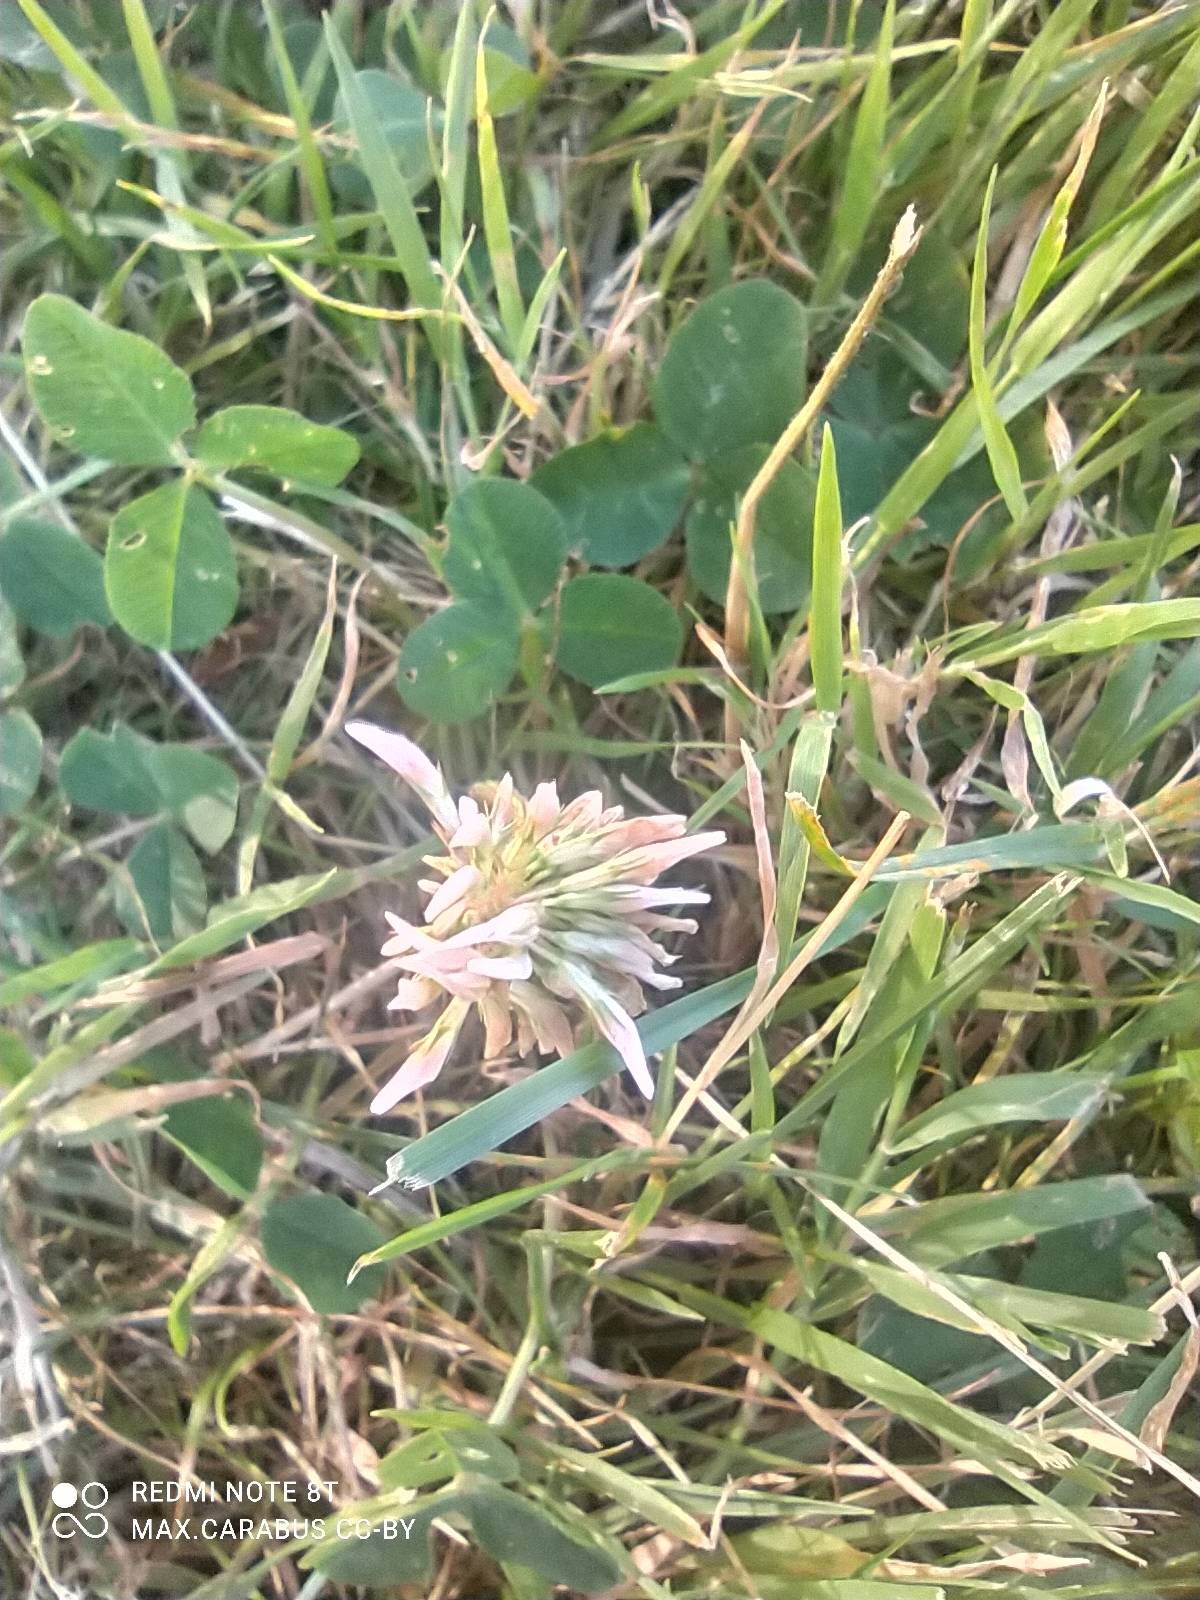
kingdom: Plantae
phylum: Tracheophyta
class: Magnoliopsida
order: Fabales
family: Fabaceae
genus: Trifolium
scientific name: Trifolium repens
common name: White clover
